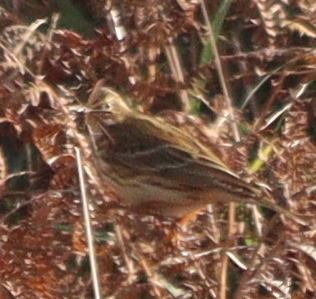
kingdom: Animalia
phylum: Chordata
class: Aves
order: Passeriformes
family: Motacillidae
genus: Anthus
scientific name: Anthus pratensis
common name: Meadow pipit
